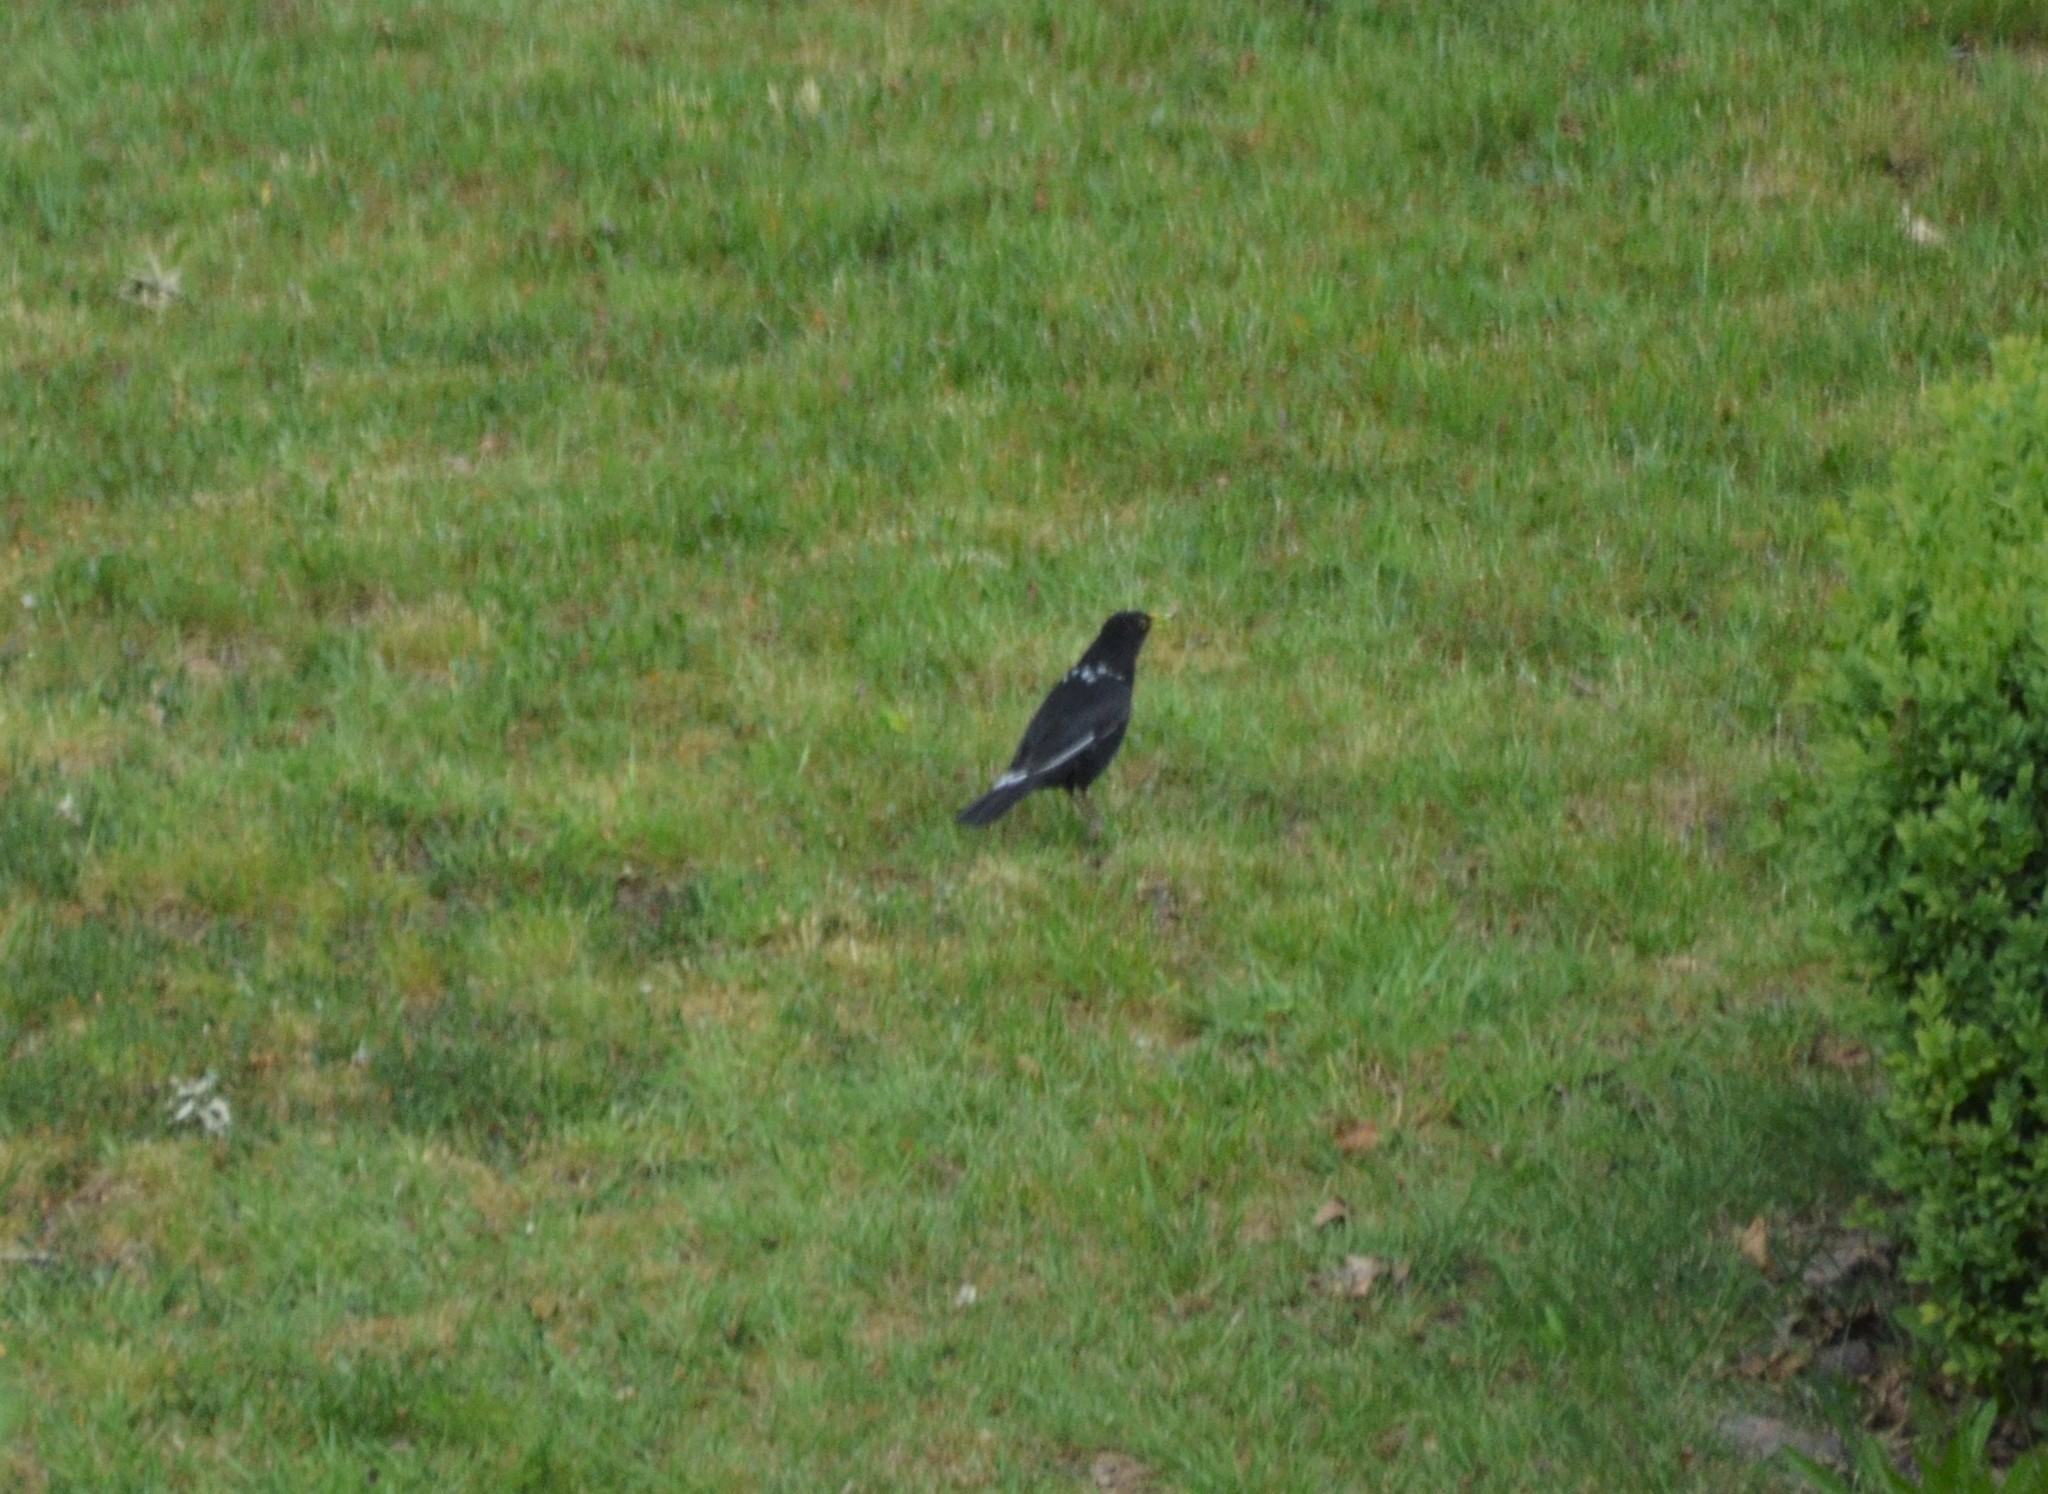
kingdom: Animalia
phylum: Chordata
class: Aves
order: Passeriformes
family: Turdidae
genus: Turdus
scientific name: Turdus merula
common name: Common blackbird
